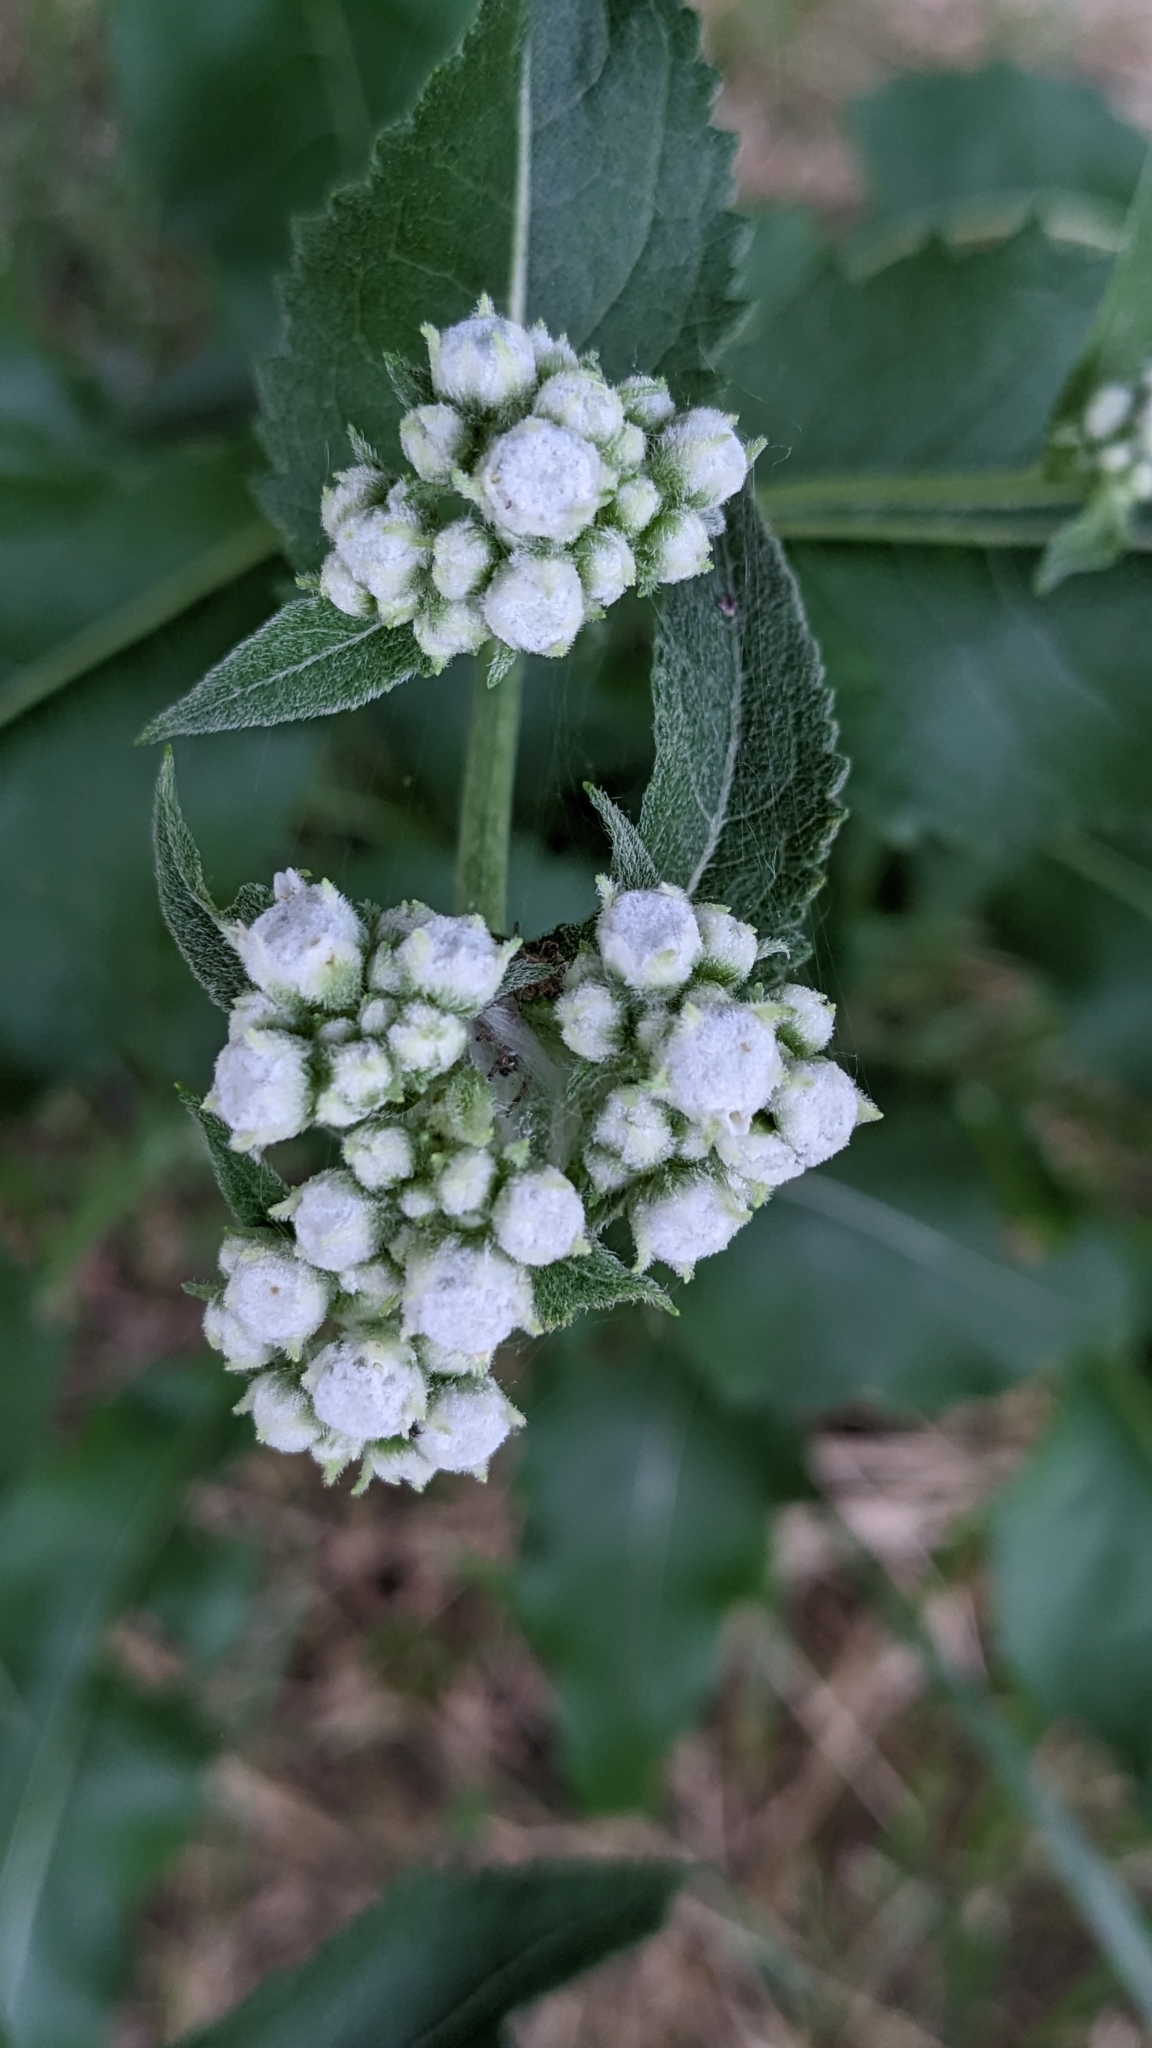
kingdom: Plantae
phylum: Tracheophyta
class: Magnoliopsida
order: Asterales
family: Asteraceae
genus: Parthenium
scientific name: Parthenium integrifolium
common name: American feverfew
